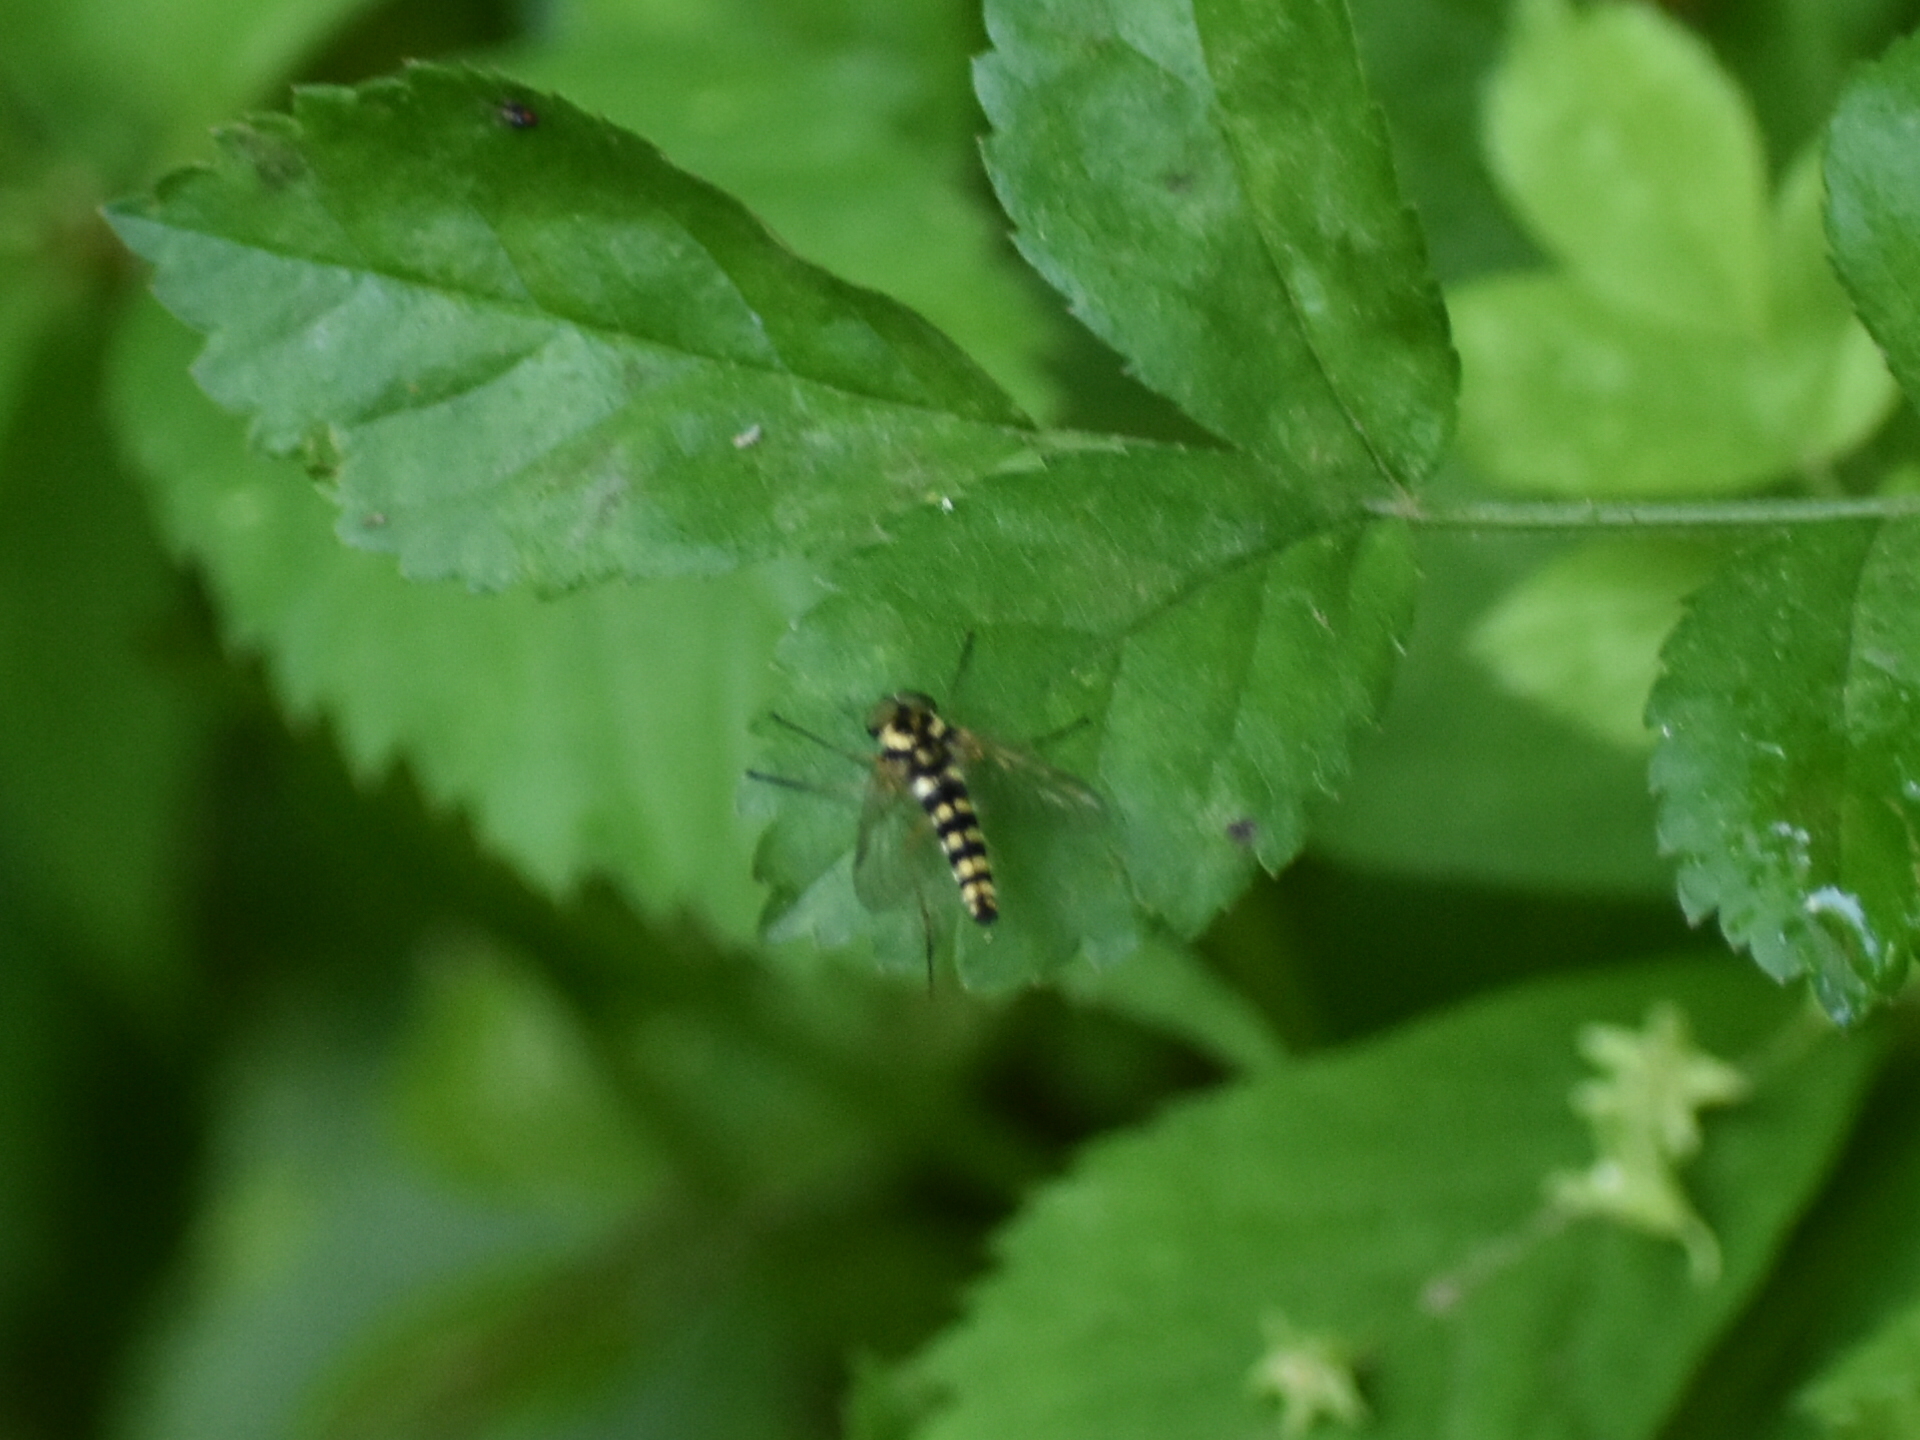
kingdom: Animalia
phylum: Arthropoda
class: Insecta
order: Diptera
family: Rhagionidae
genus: Chrysopilus
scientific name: Chrysopilus ornatus
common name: Ornate snipe fly
